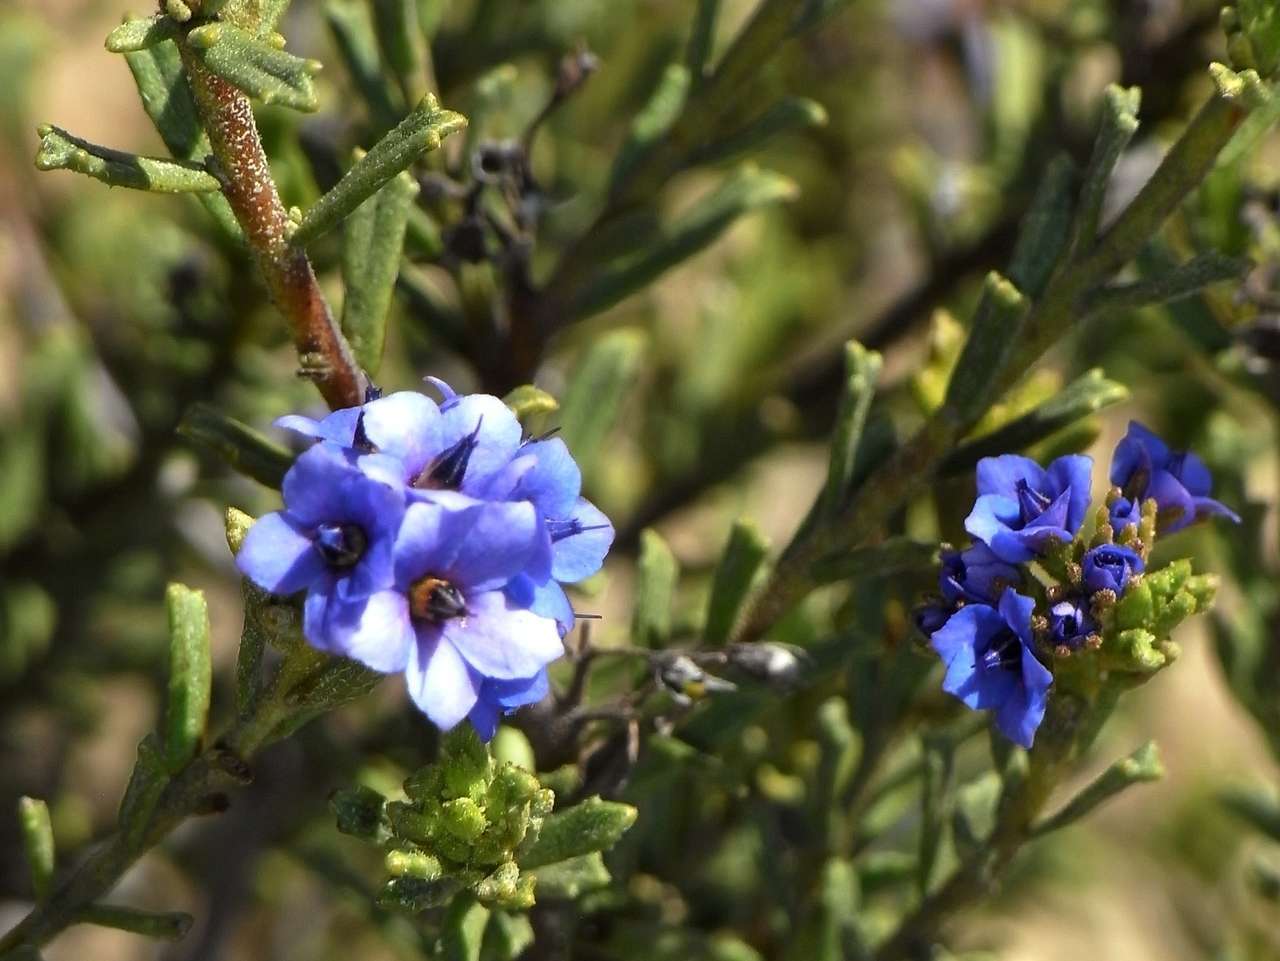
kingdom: Plantae
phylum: Tracheophyta
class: Magnoliopsida
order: Boraginales
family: Ehretiaceae
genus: Halgania
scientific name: Halgania cyanea
